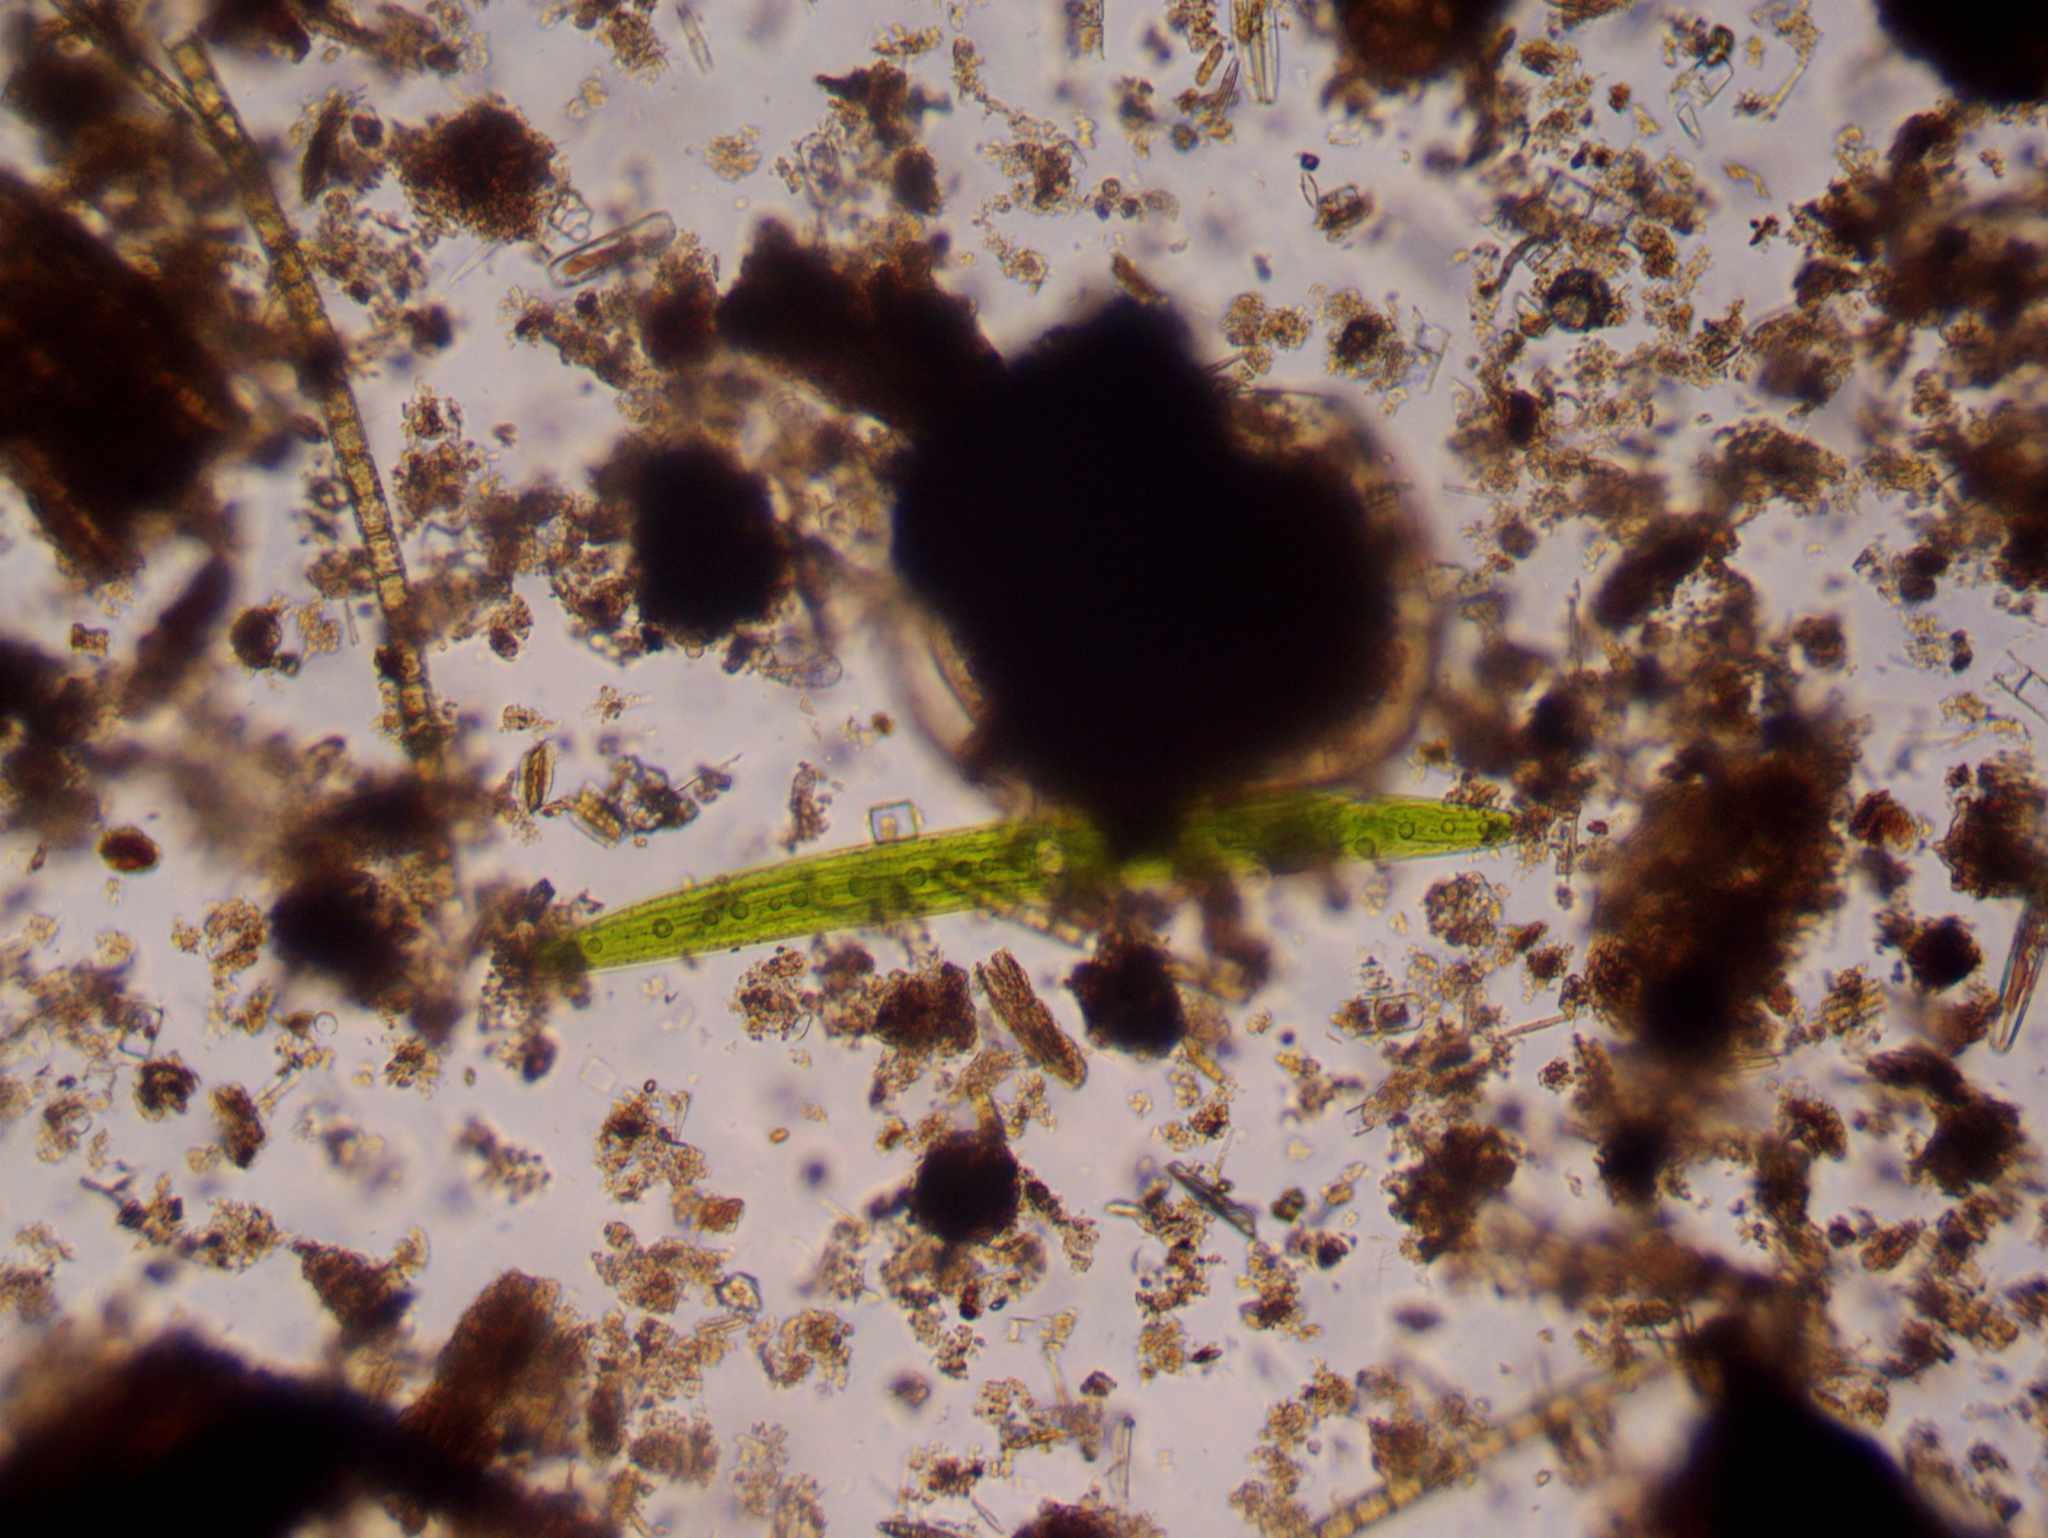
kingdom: Plantae
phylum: Charophyta
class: Zygnematophyceae
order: Zygnematales
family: Closteriaceae
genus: Closterium
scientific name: Closterium acerosum
